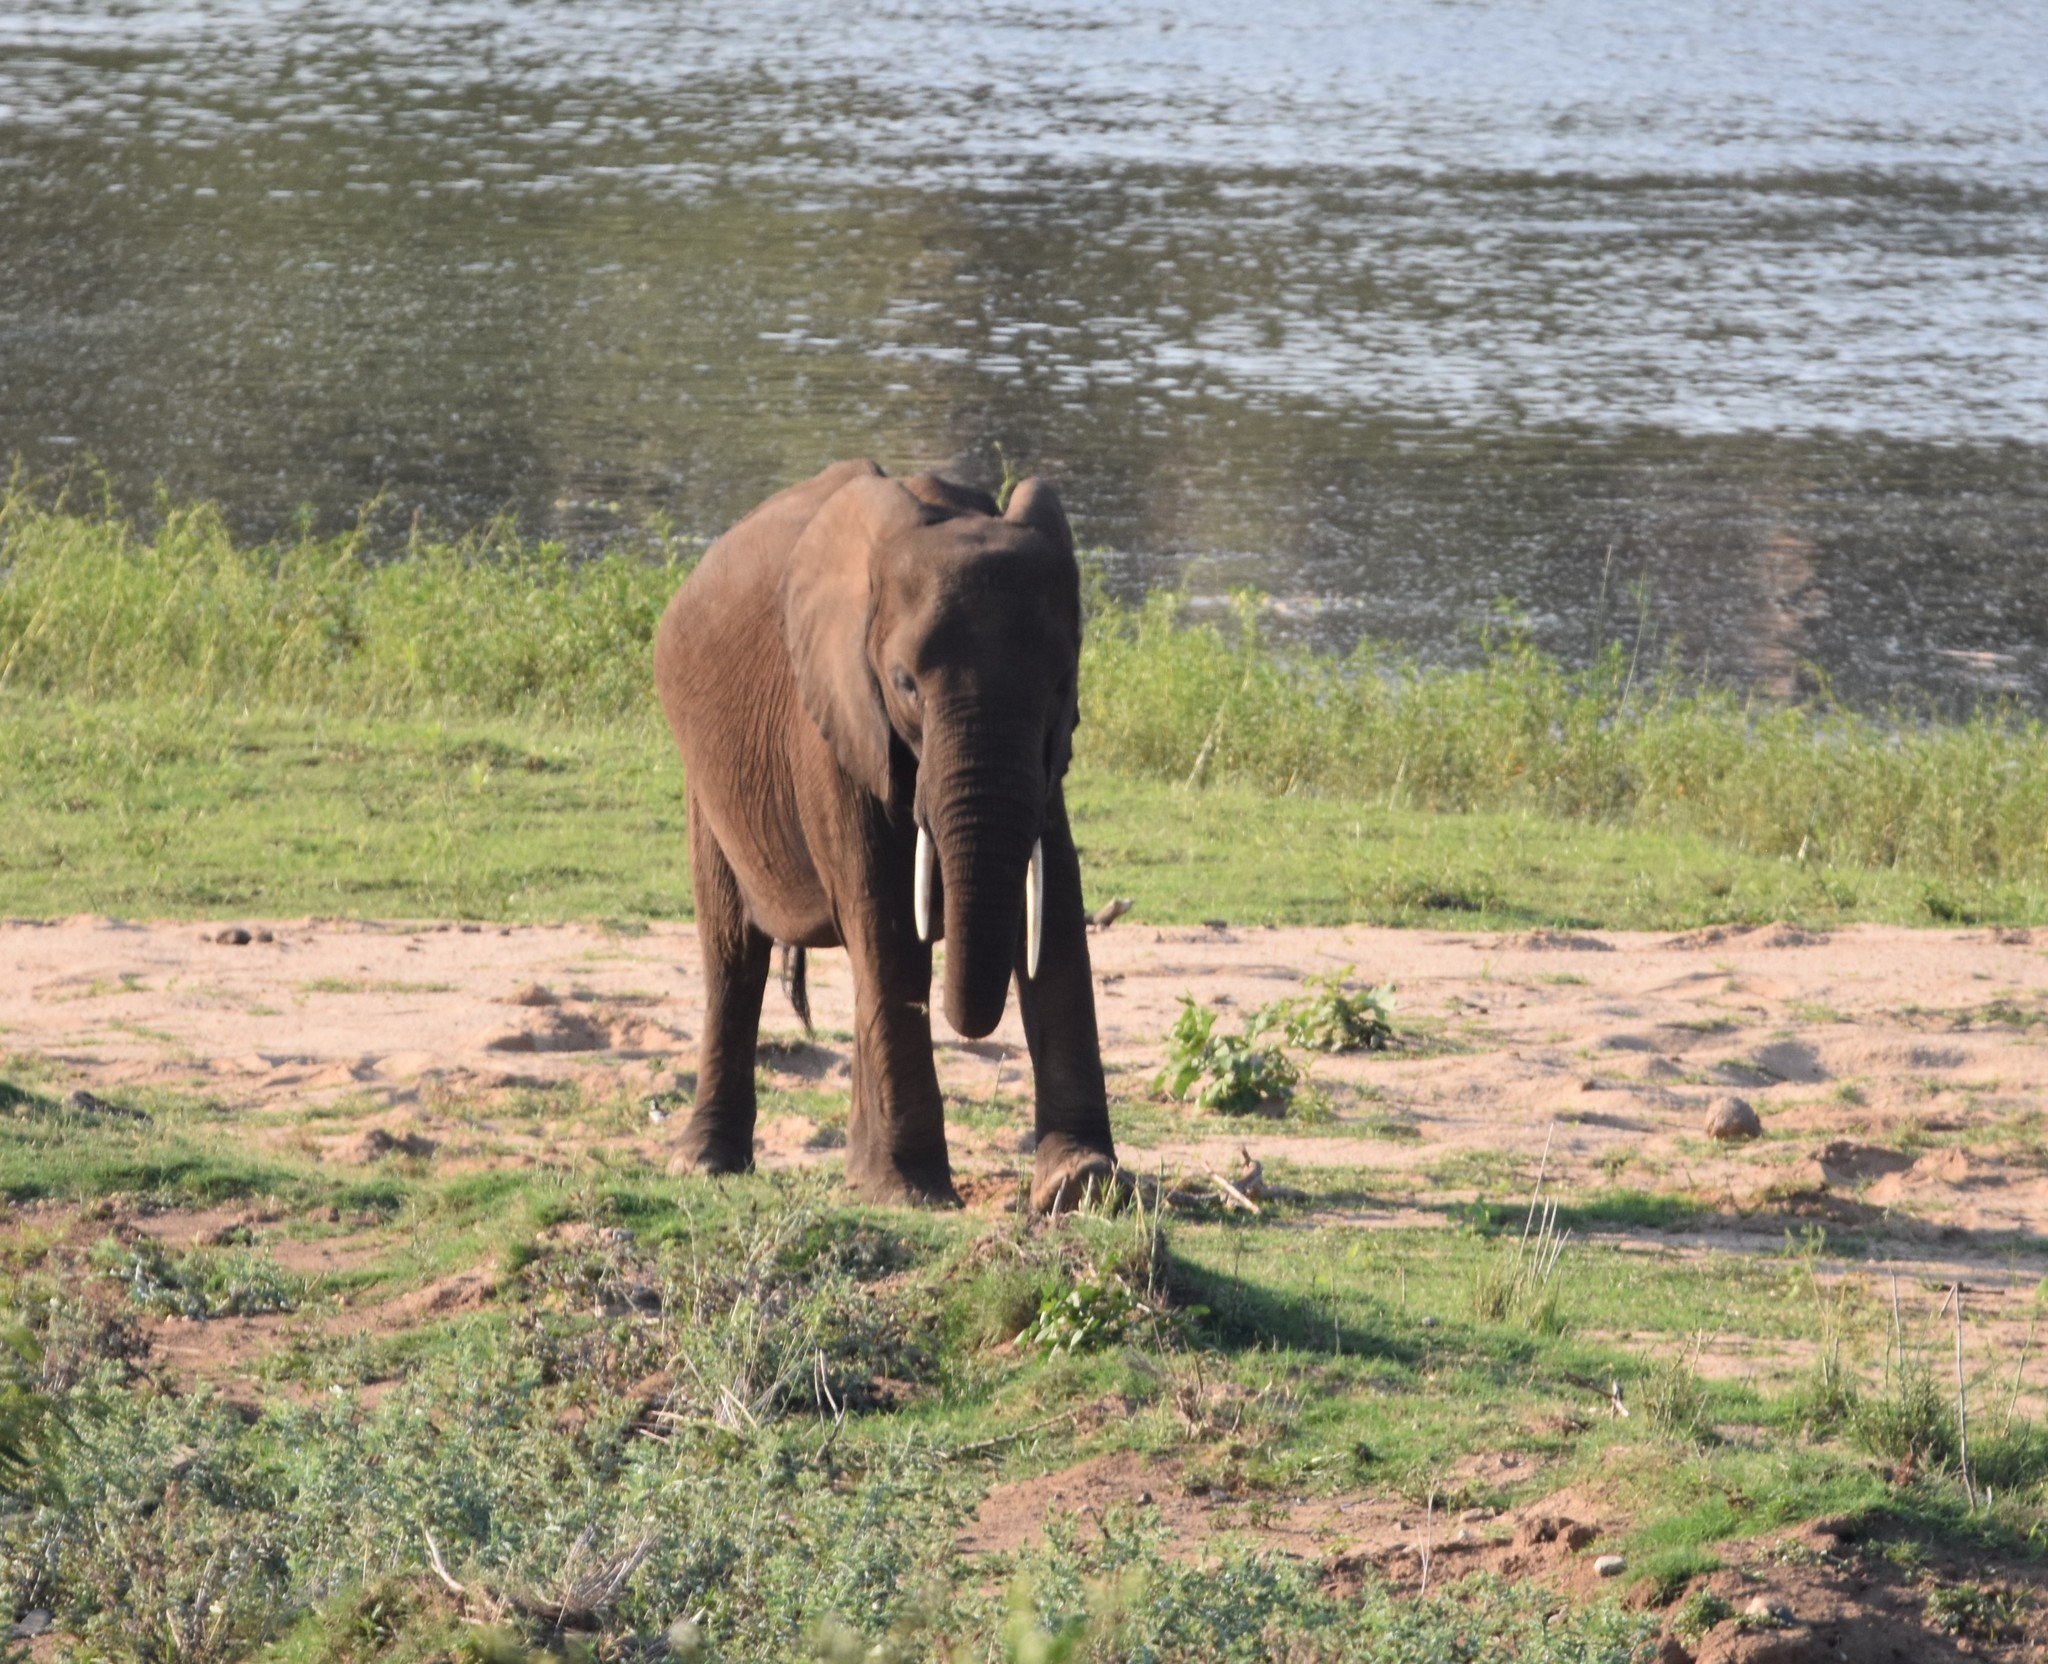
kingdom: Animalia
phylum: Chordata
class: Mammalia
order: Proboscidea
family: Elephantidae
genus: Loxodonta
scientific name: Loxodonta africana
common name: African elephant
